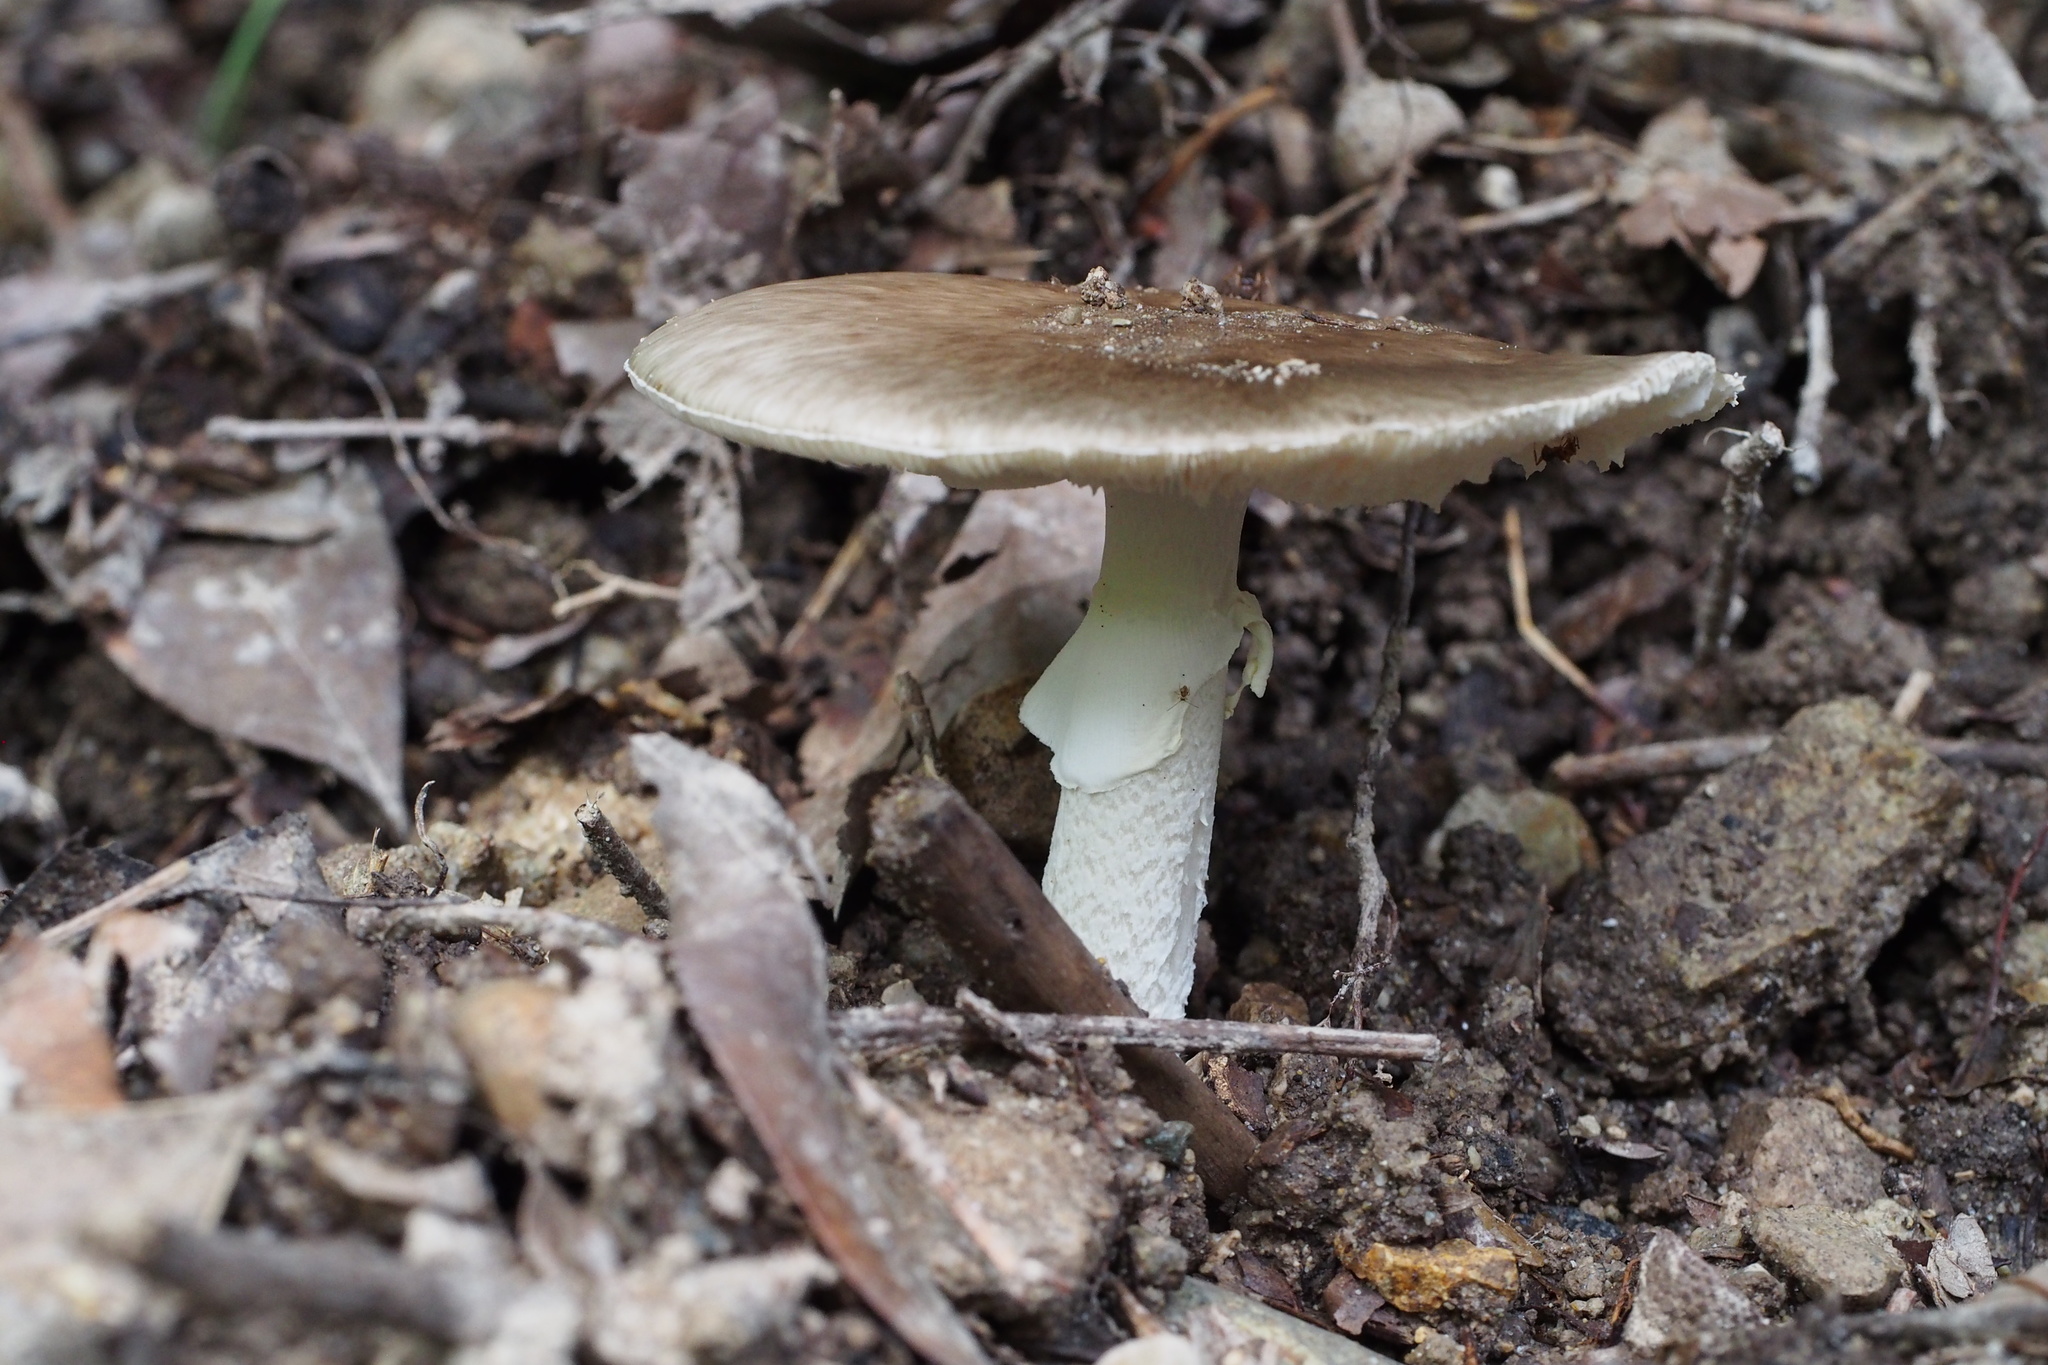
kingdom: Fungi
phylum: Basidiomycota
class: Agaricomycetes
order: Agaricales
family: Amanitaceae
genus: Amanita
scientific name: Amanita pseudoporphyria
